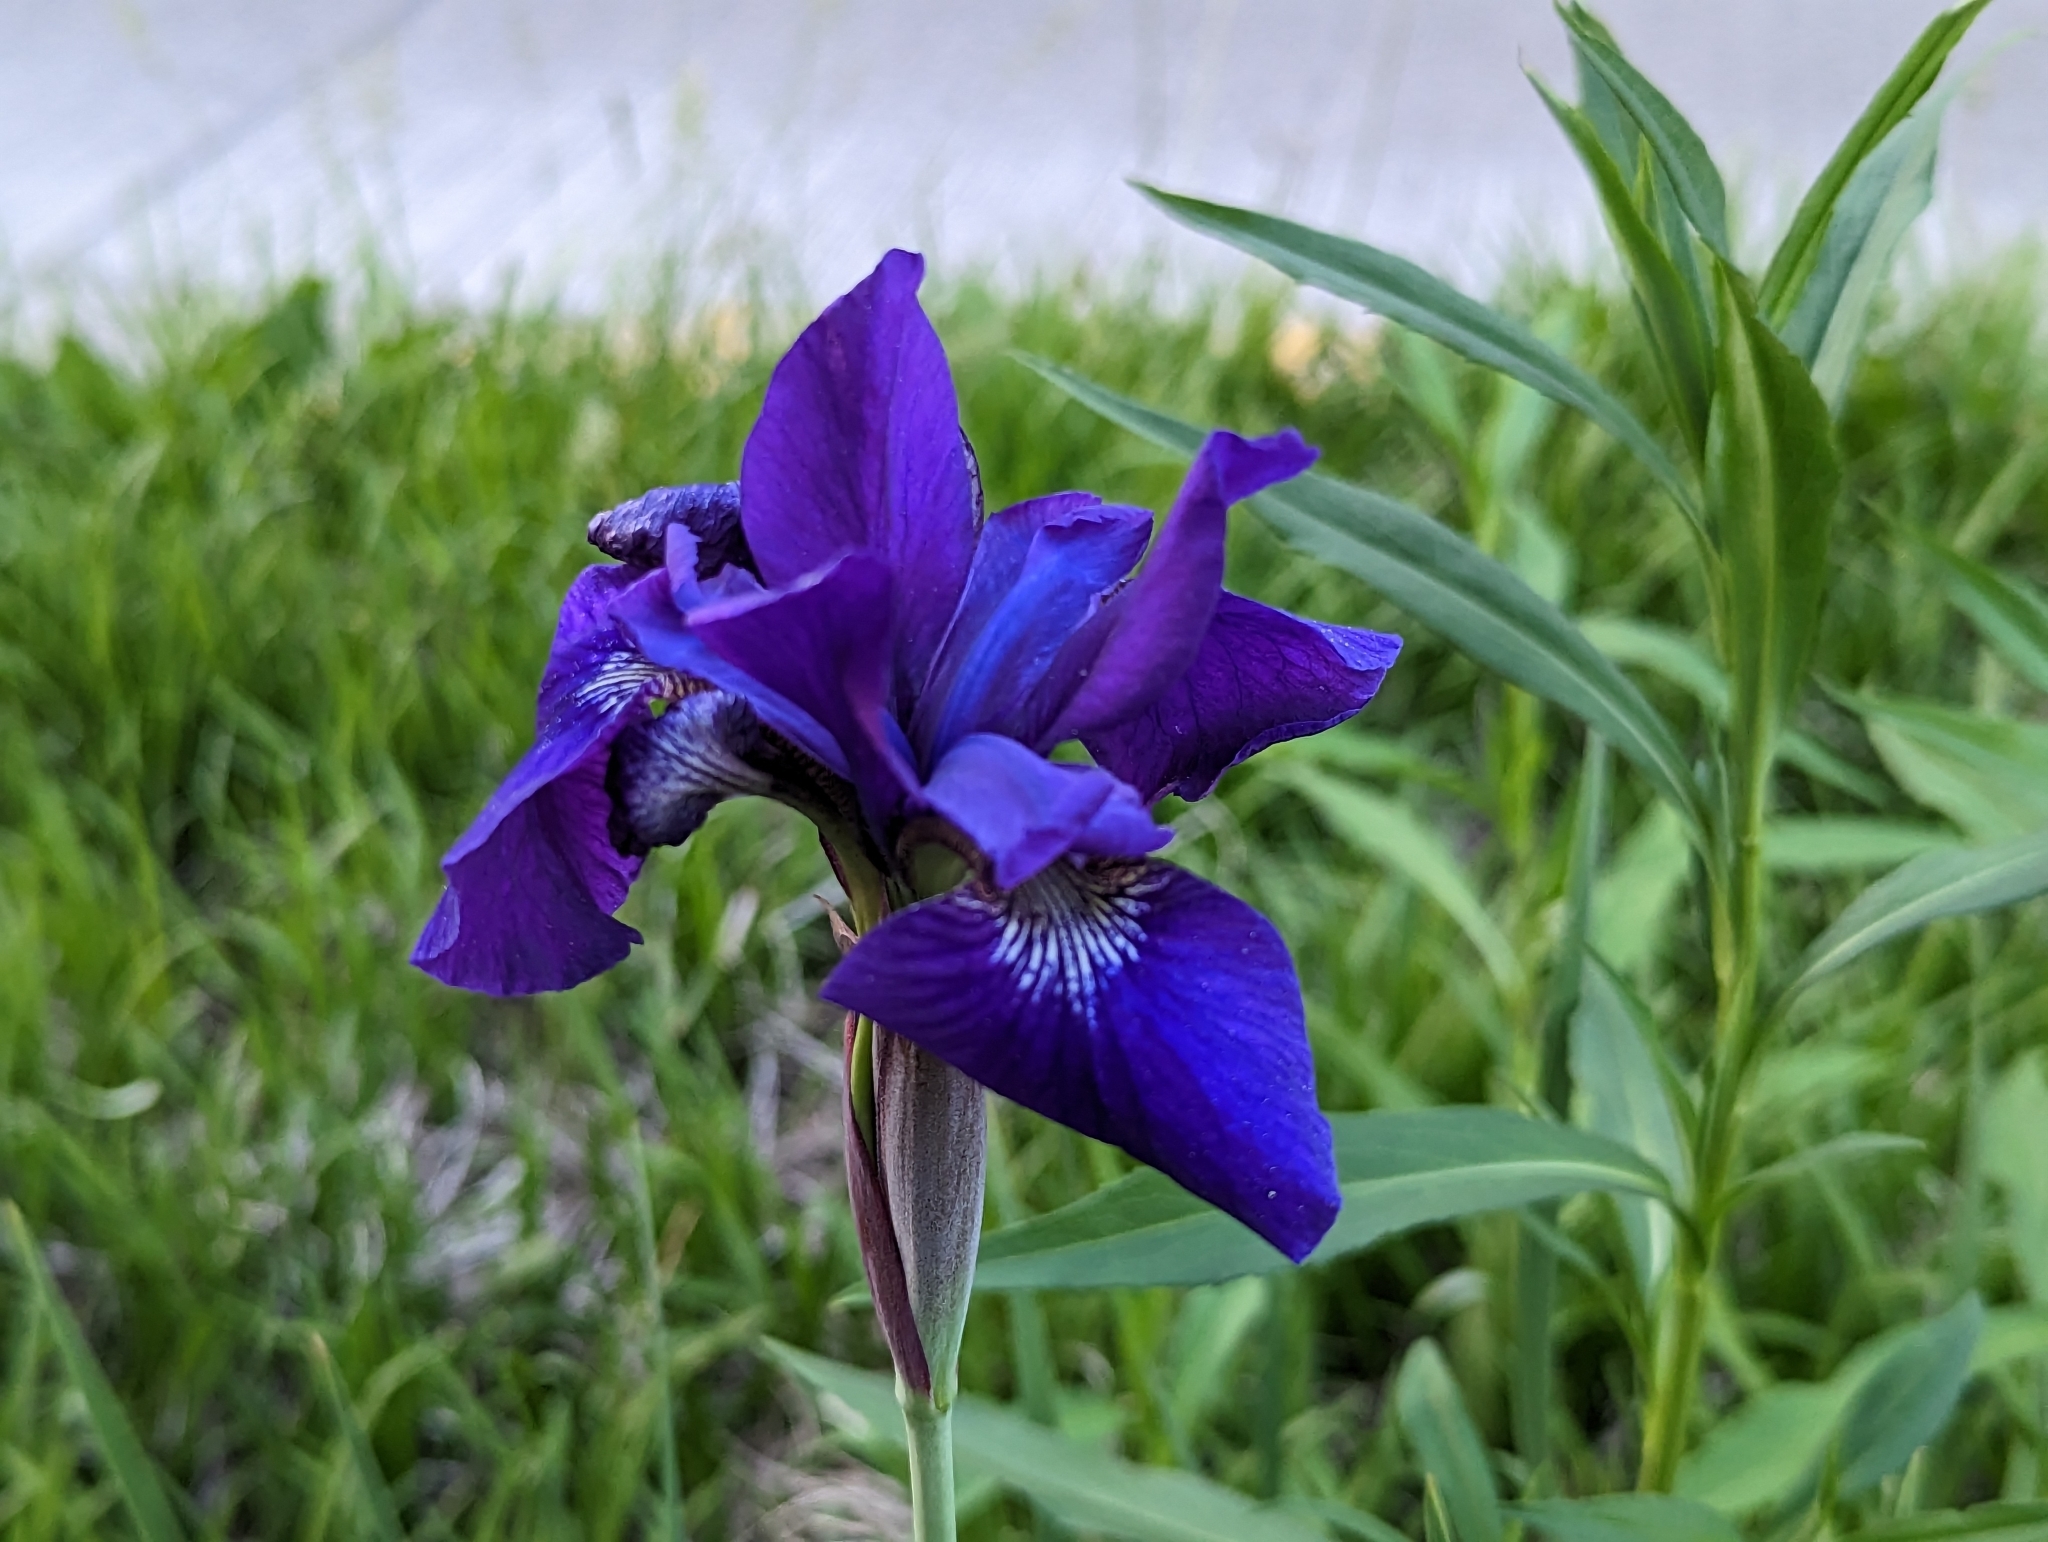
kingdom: Plantae
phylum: Tracheophyta
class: Liliopsida
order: Asparagales
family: Iridaceae
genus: Iris
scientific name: Iris sanguinea
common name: Blood iris
